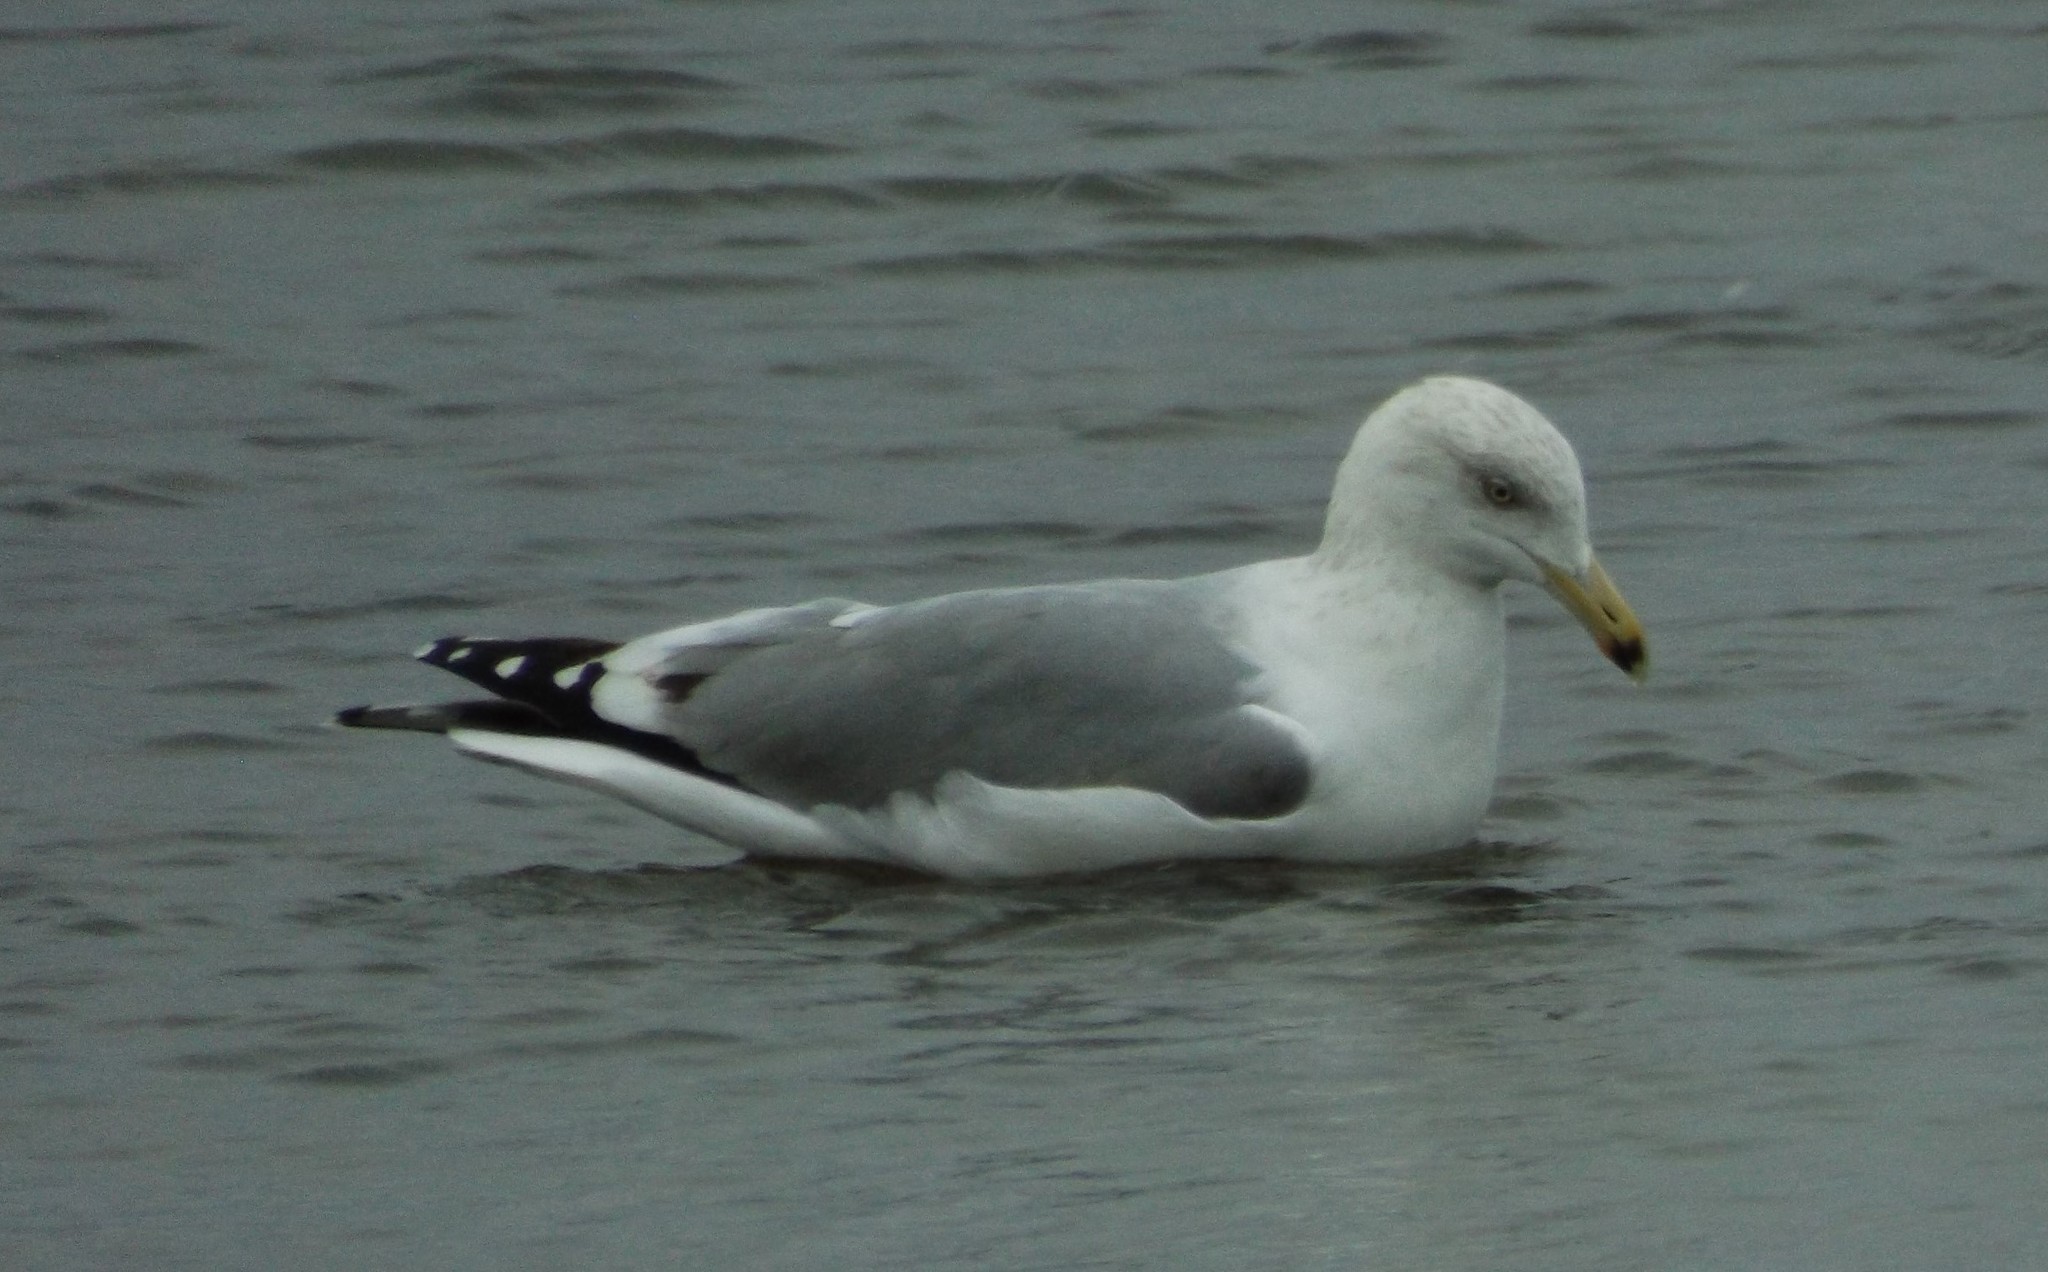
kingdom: Animalia
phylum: Chordata
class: Aves
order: Charadriiformes
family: Laridae
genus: Larus
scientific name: Larus delawarensis
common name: Ring-billed gull
